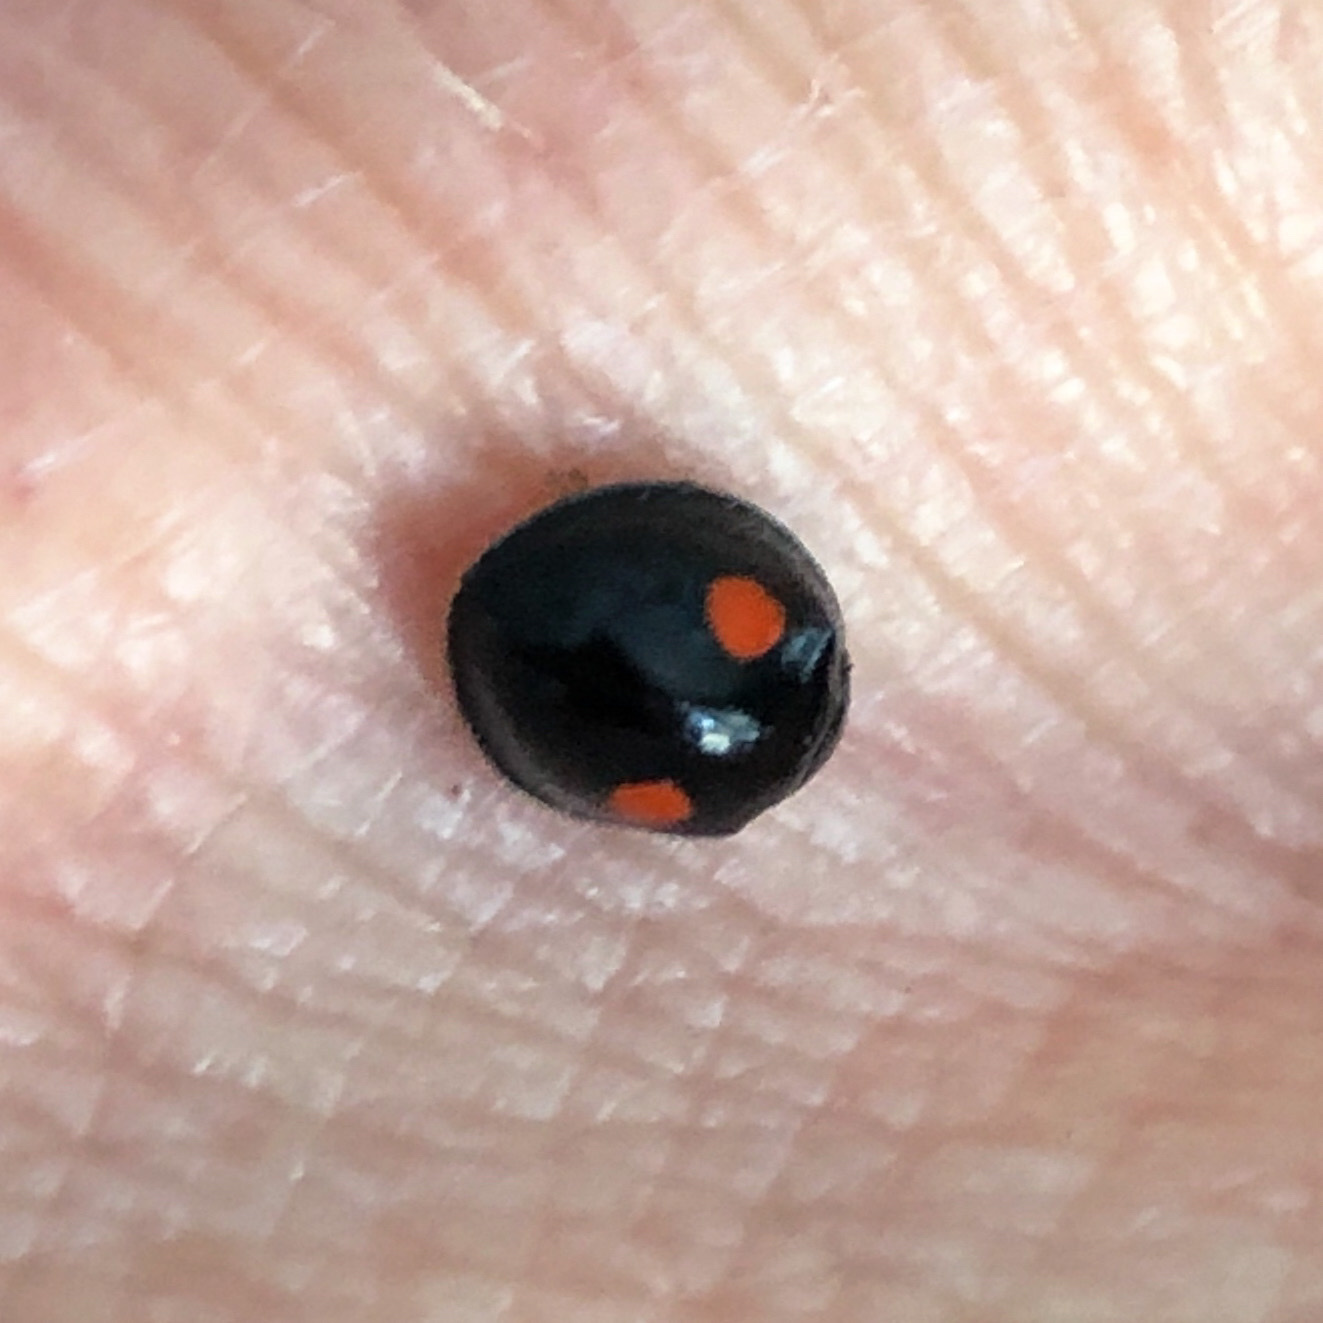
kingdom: Animalia
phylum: Arthropoda
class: Insecta
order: Coleoptera
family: Coccinellidae
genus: Chilocorus
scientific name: Chilocorus stigma
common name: Twicestabbed lady beetle
